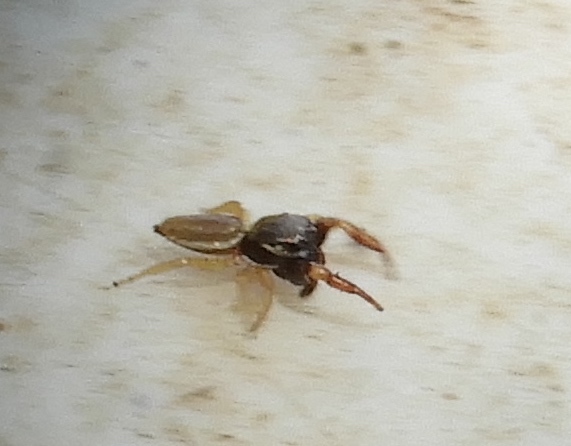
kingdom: Animalia
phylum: Arthropoda
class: Arachnida
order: Araneae
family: Salticidae
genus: Sassacus
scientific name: Sassacus vitis
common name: Jumping spiders
